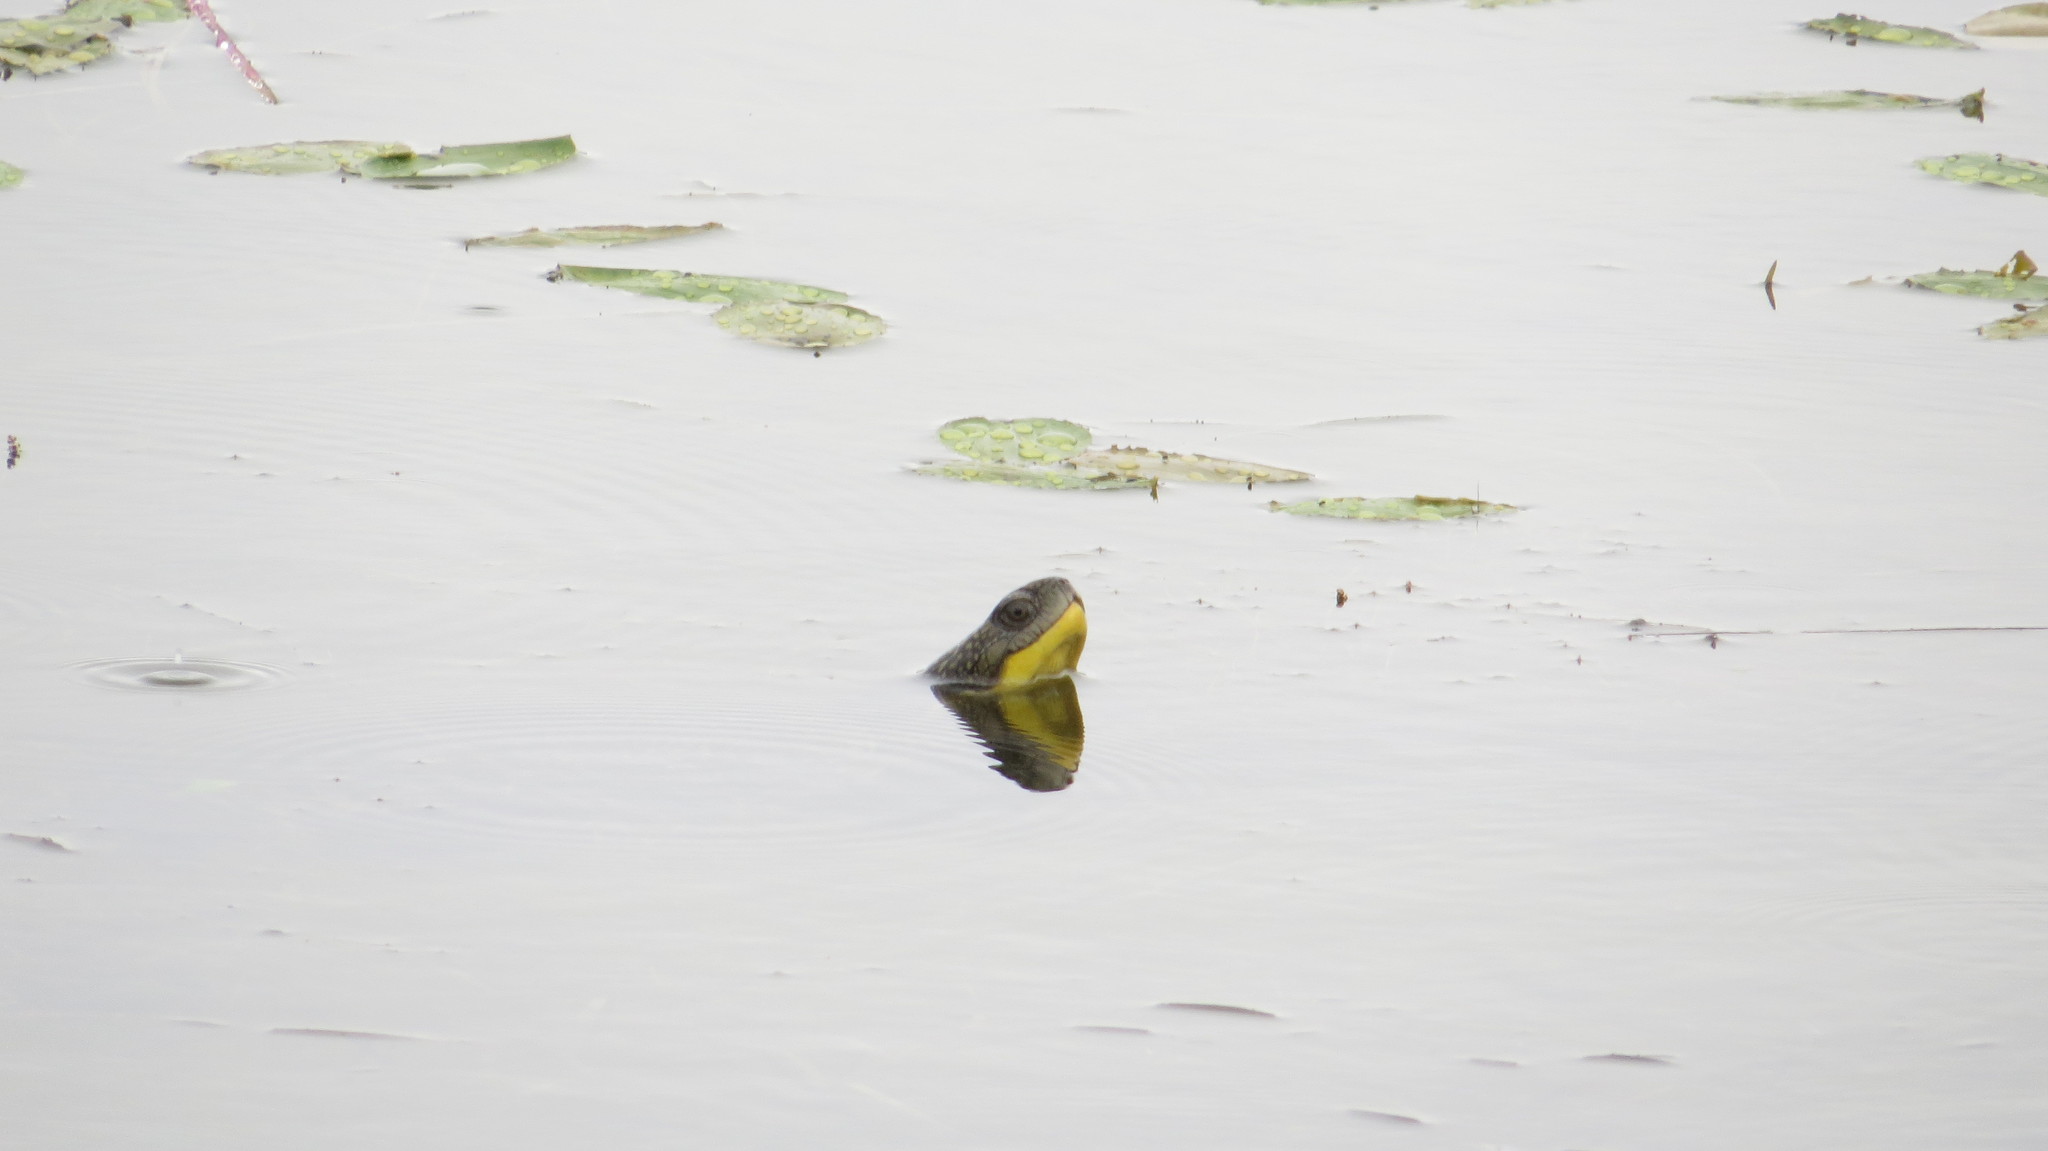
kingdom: Animalia
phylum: Chordata
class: Testudines
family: Emydidae
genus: Emys
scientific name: Emys blandingii
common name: Blanding's turtle
